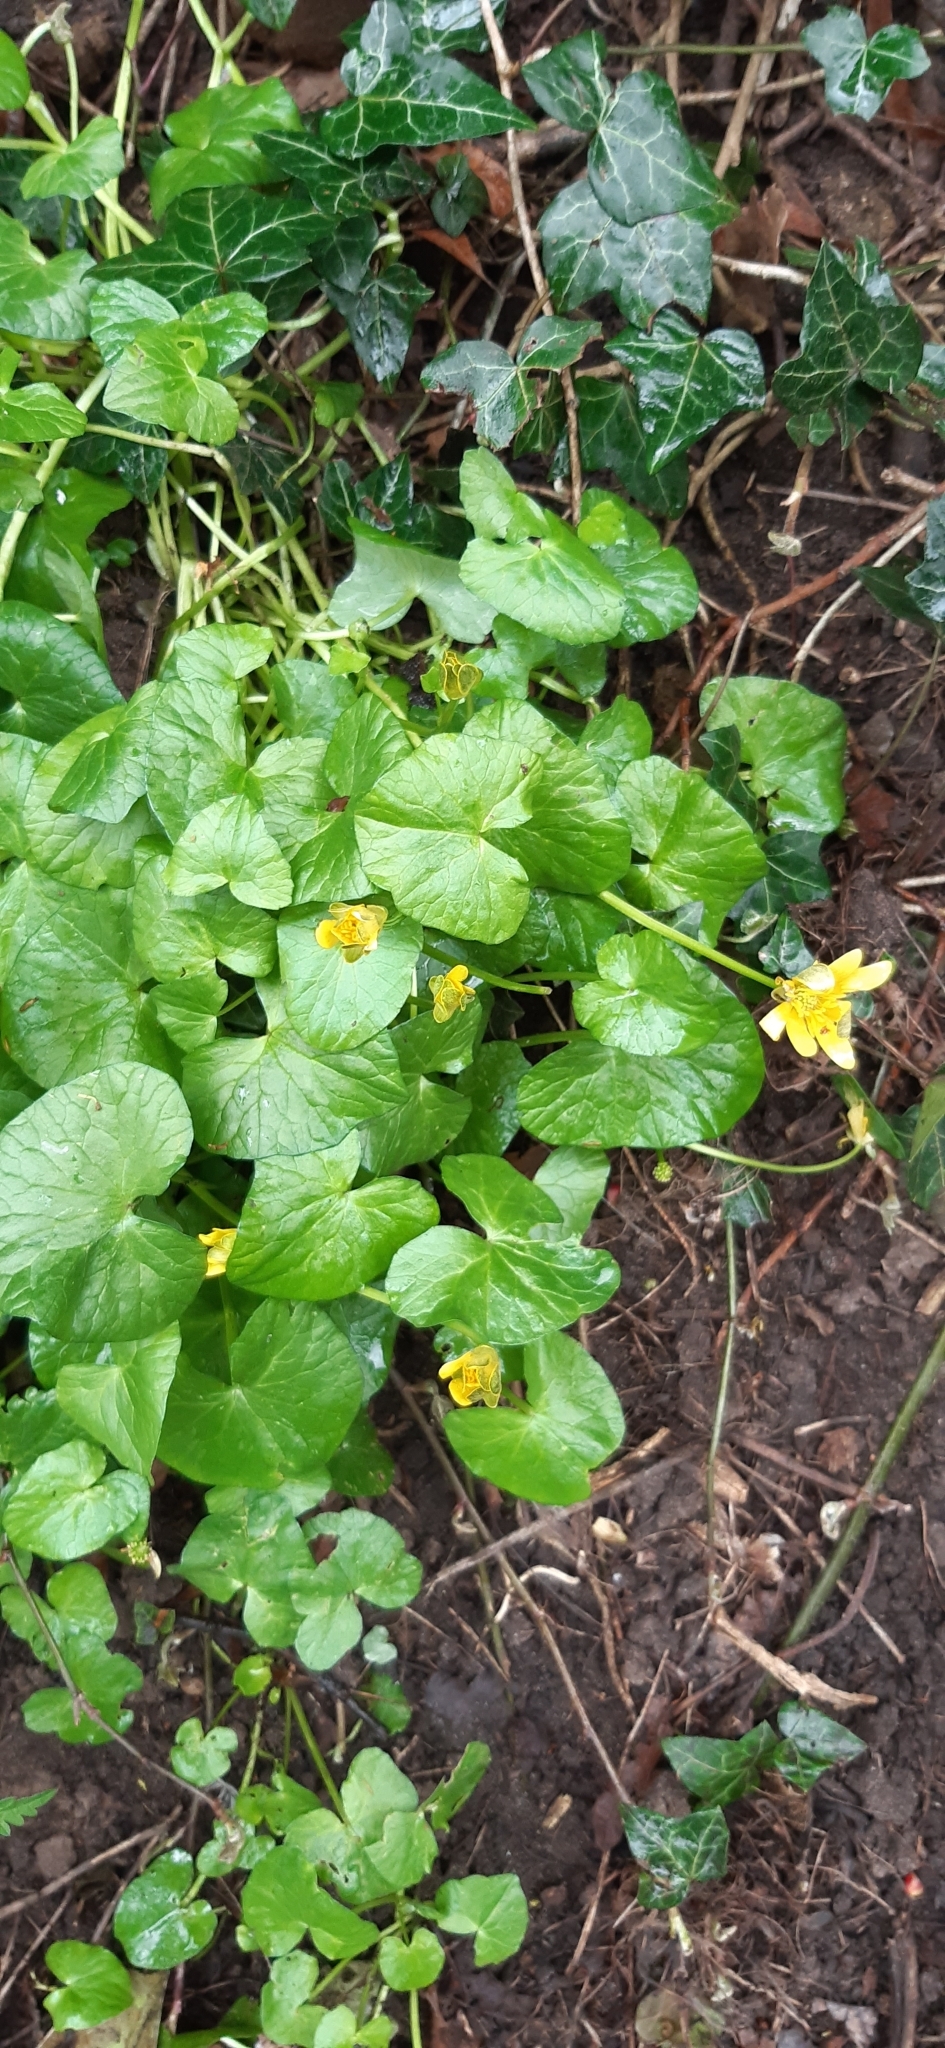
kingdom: Plantae
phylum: Tracheophyta
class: Magnoliopsida
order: Ranunculales
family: Ranunculaceae
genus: Ficaria
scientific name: Ficaria verna
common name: Lesser celandine
